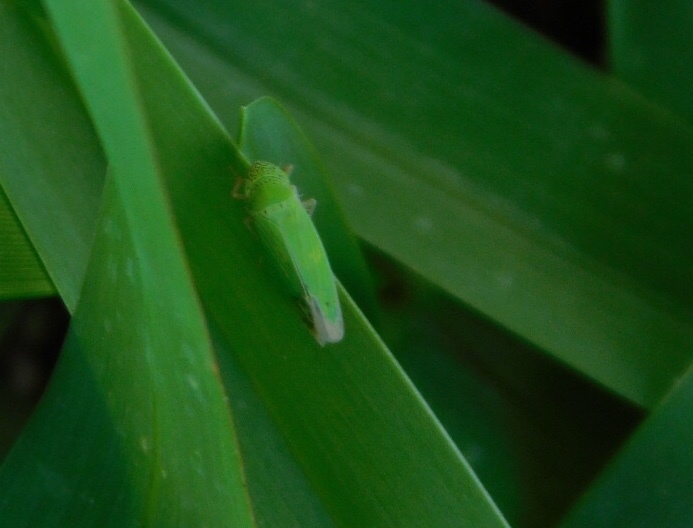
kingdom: Animalia
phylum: Arthropoda
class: Insecta
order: Hemiptera
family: Cicadellidae
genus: Hortensia
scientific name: Hortensia similis
